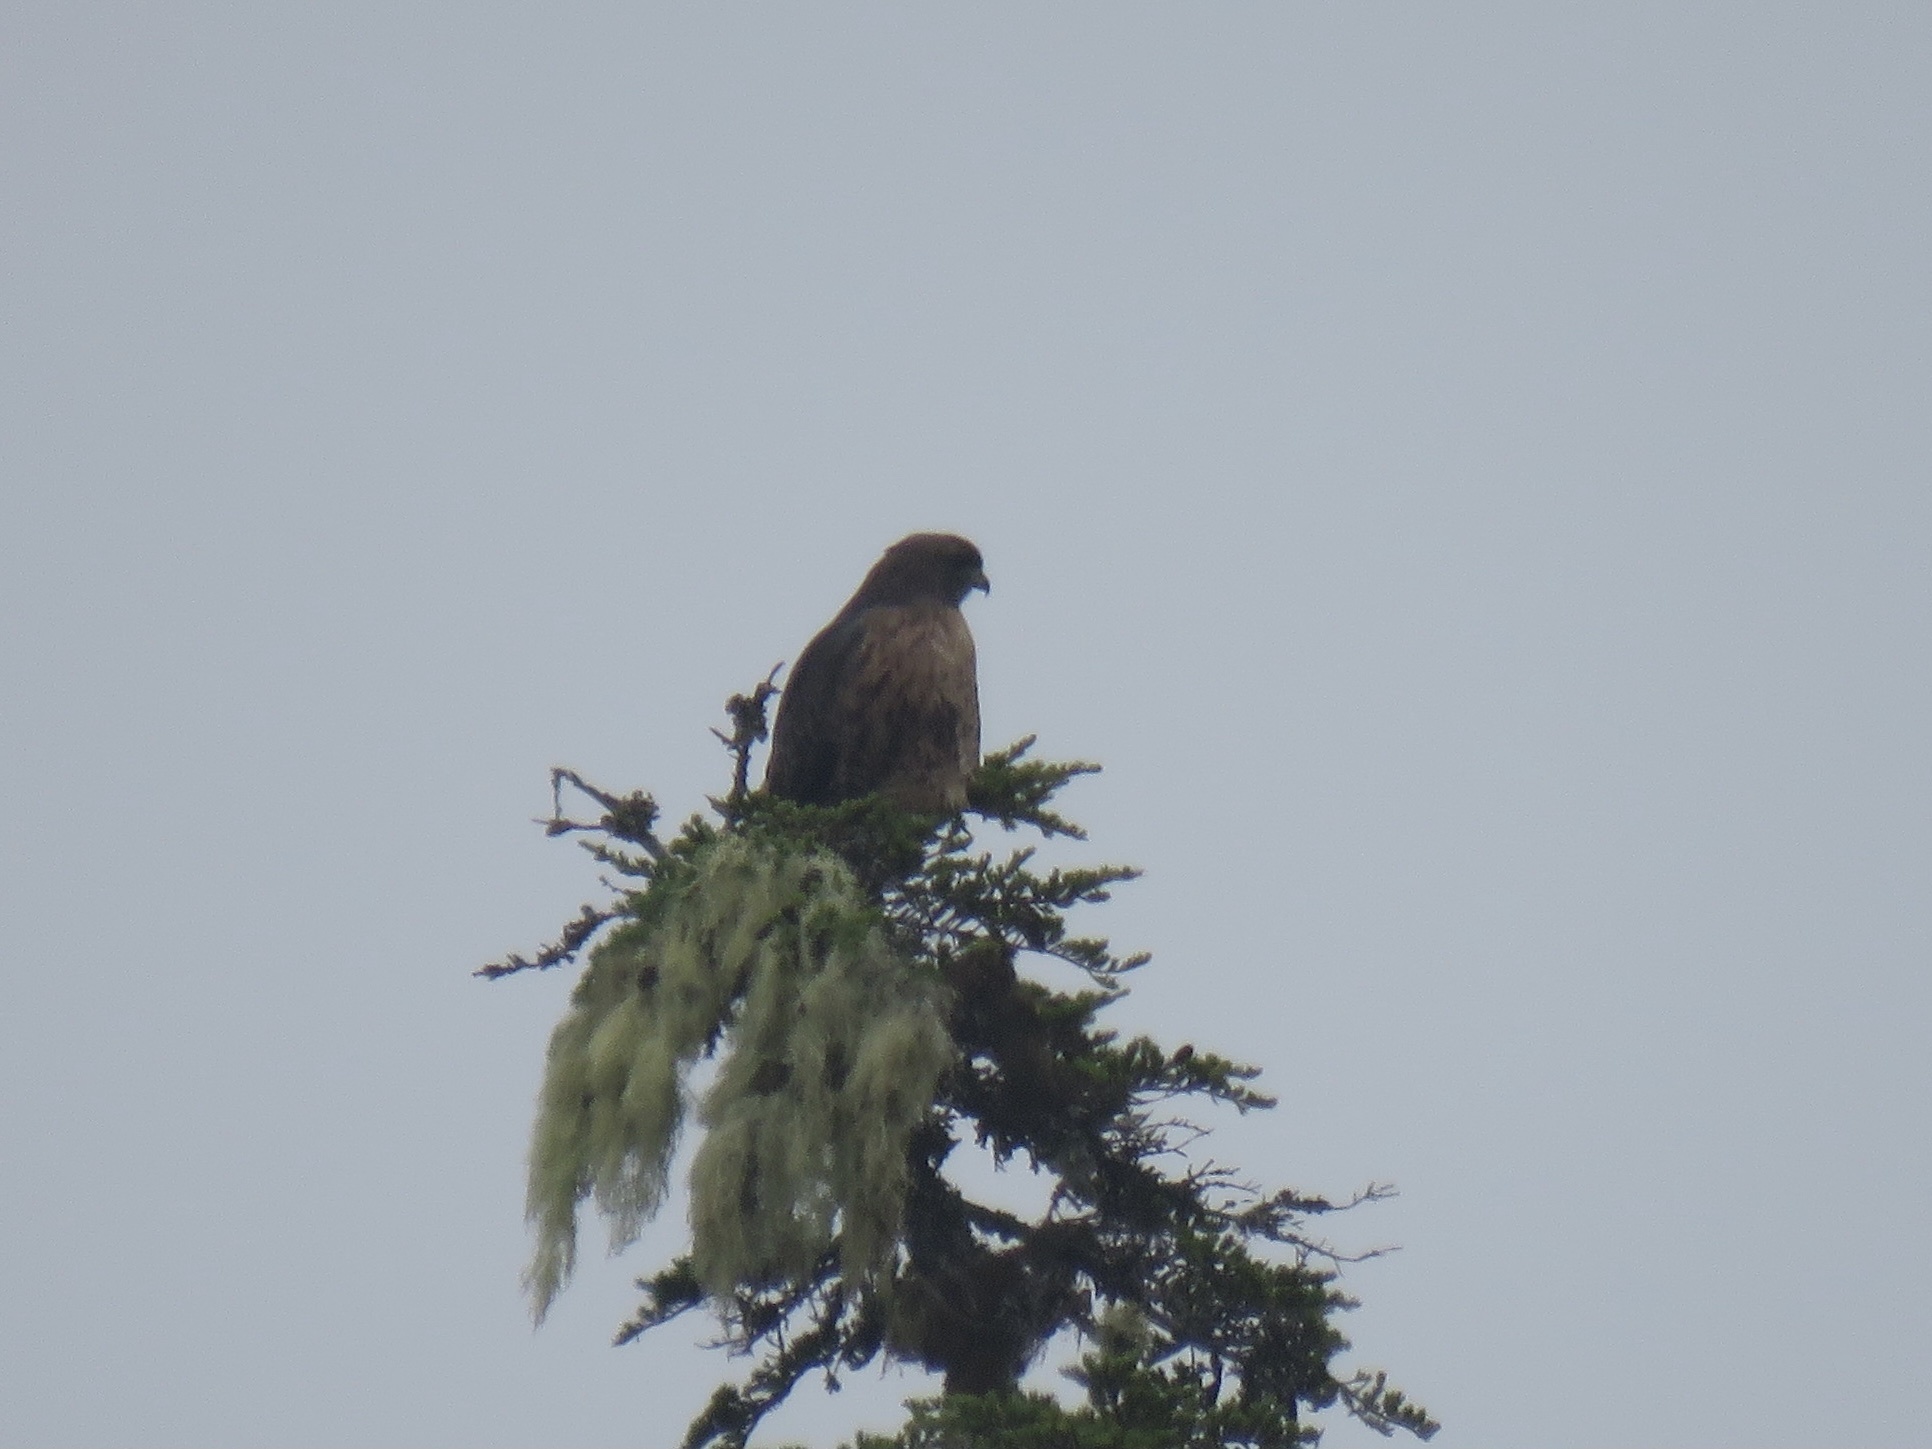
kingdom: Animalia
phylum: Chordata
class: Aves
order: Accipitriformes
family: Accipitridae
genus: Buteo
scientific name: Buteo jamaicensis
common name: Red-tailed hawk
